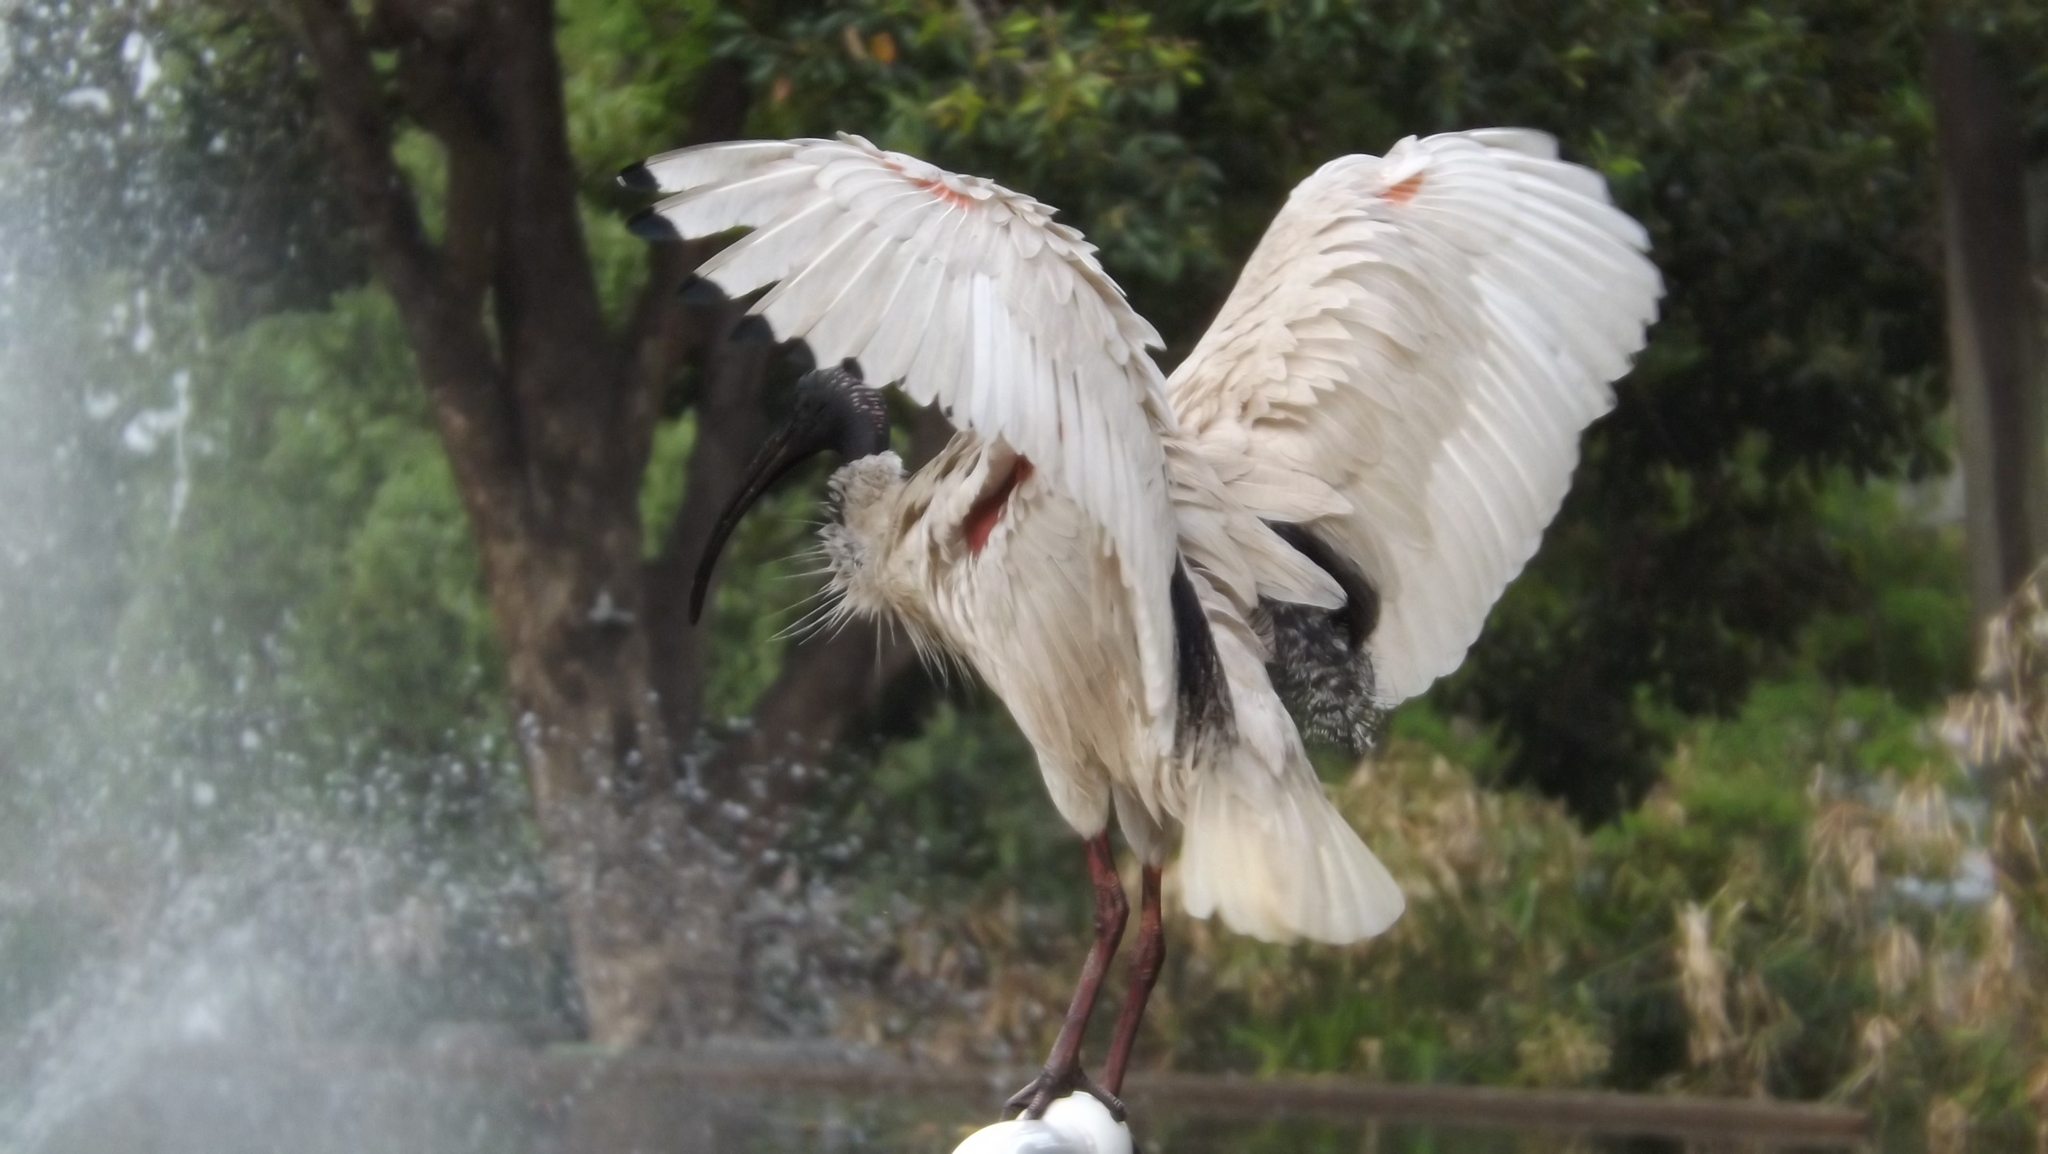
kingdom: Animalia
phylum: Chordata
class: Aves
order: Pelecaniformes
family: Threskiornithidae
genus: Threskiornis
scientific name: Threskiornis molucca
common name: Australian white ibis
